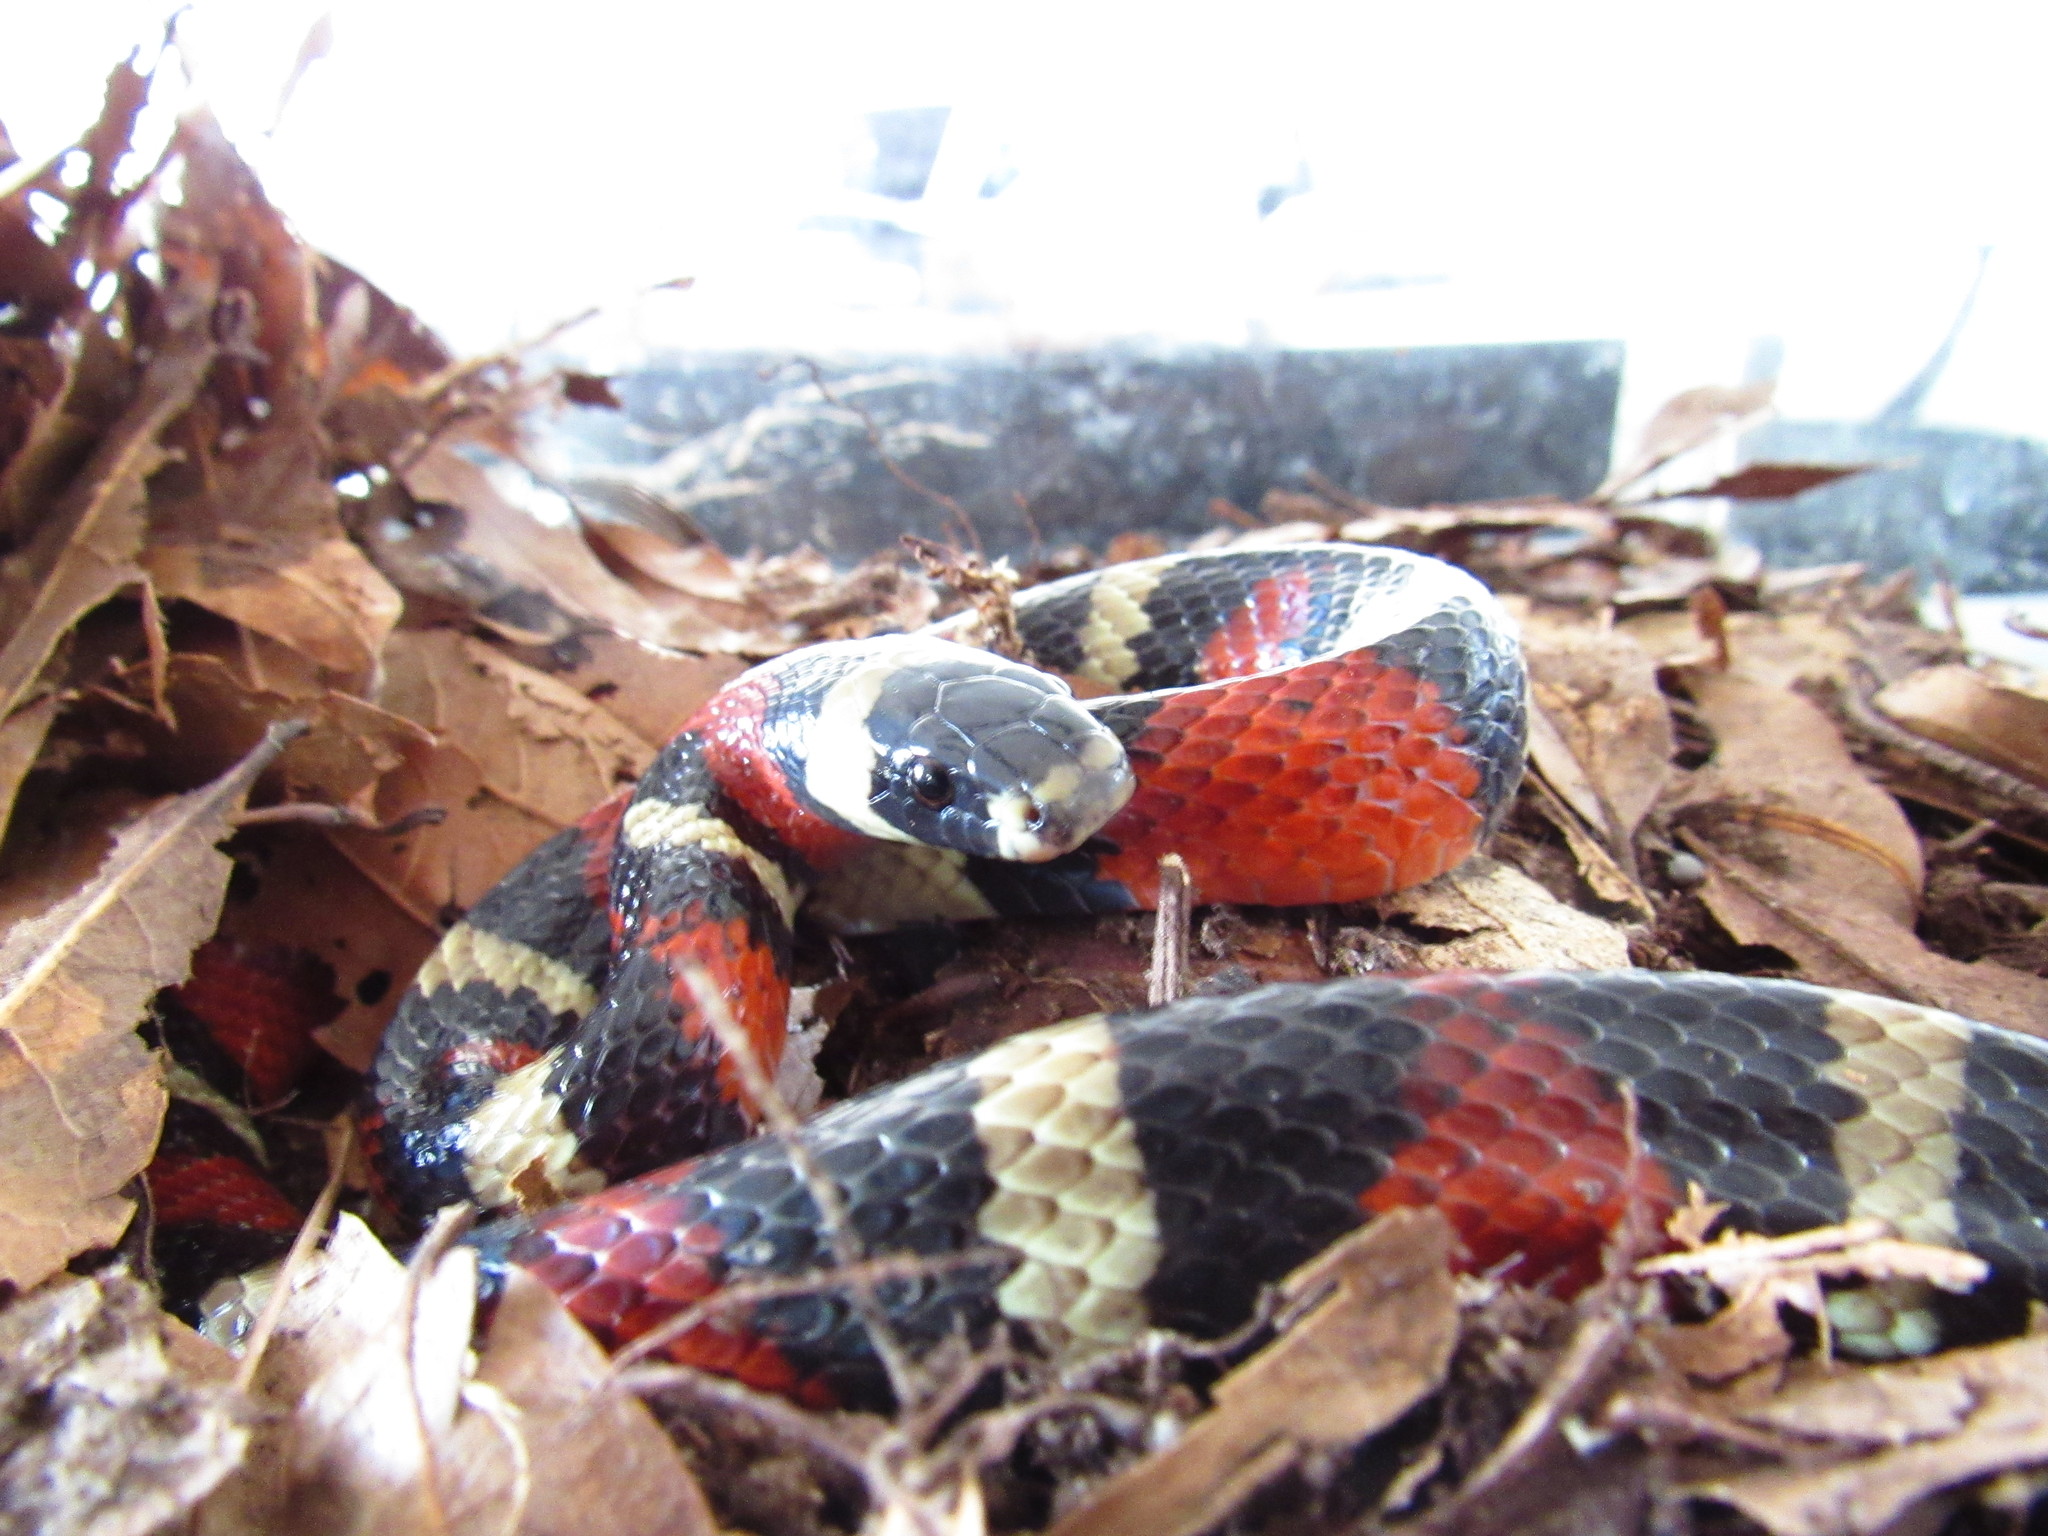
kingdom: Animalia
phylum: Chordata
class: Squamata
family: Colubridae
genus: Lampropeltis
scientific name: Lampropeltis polyzona
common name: Atlantic central american milksnake
